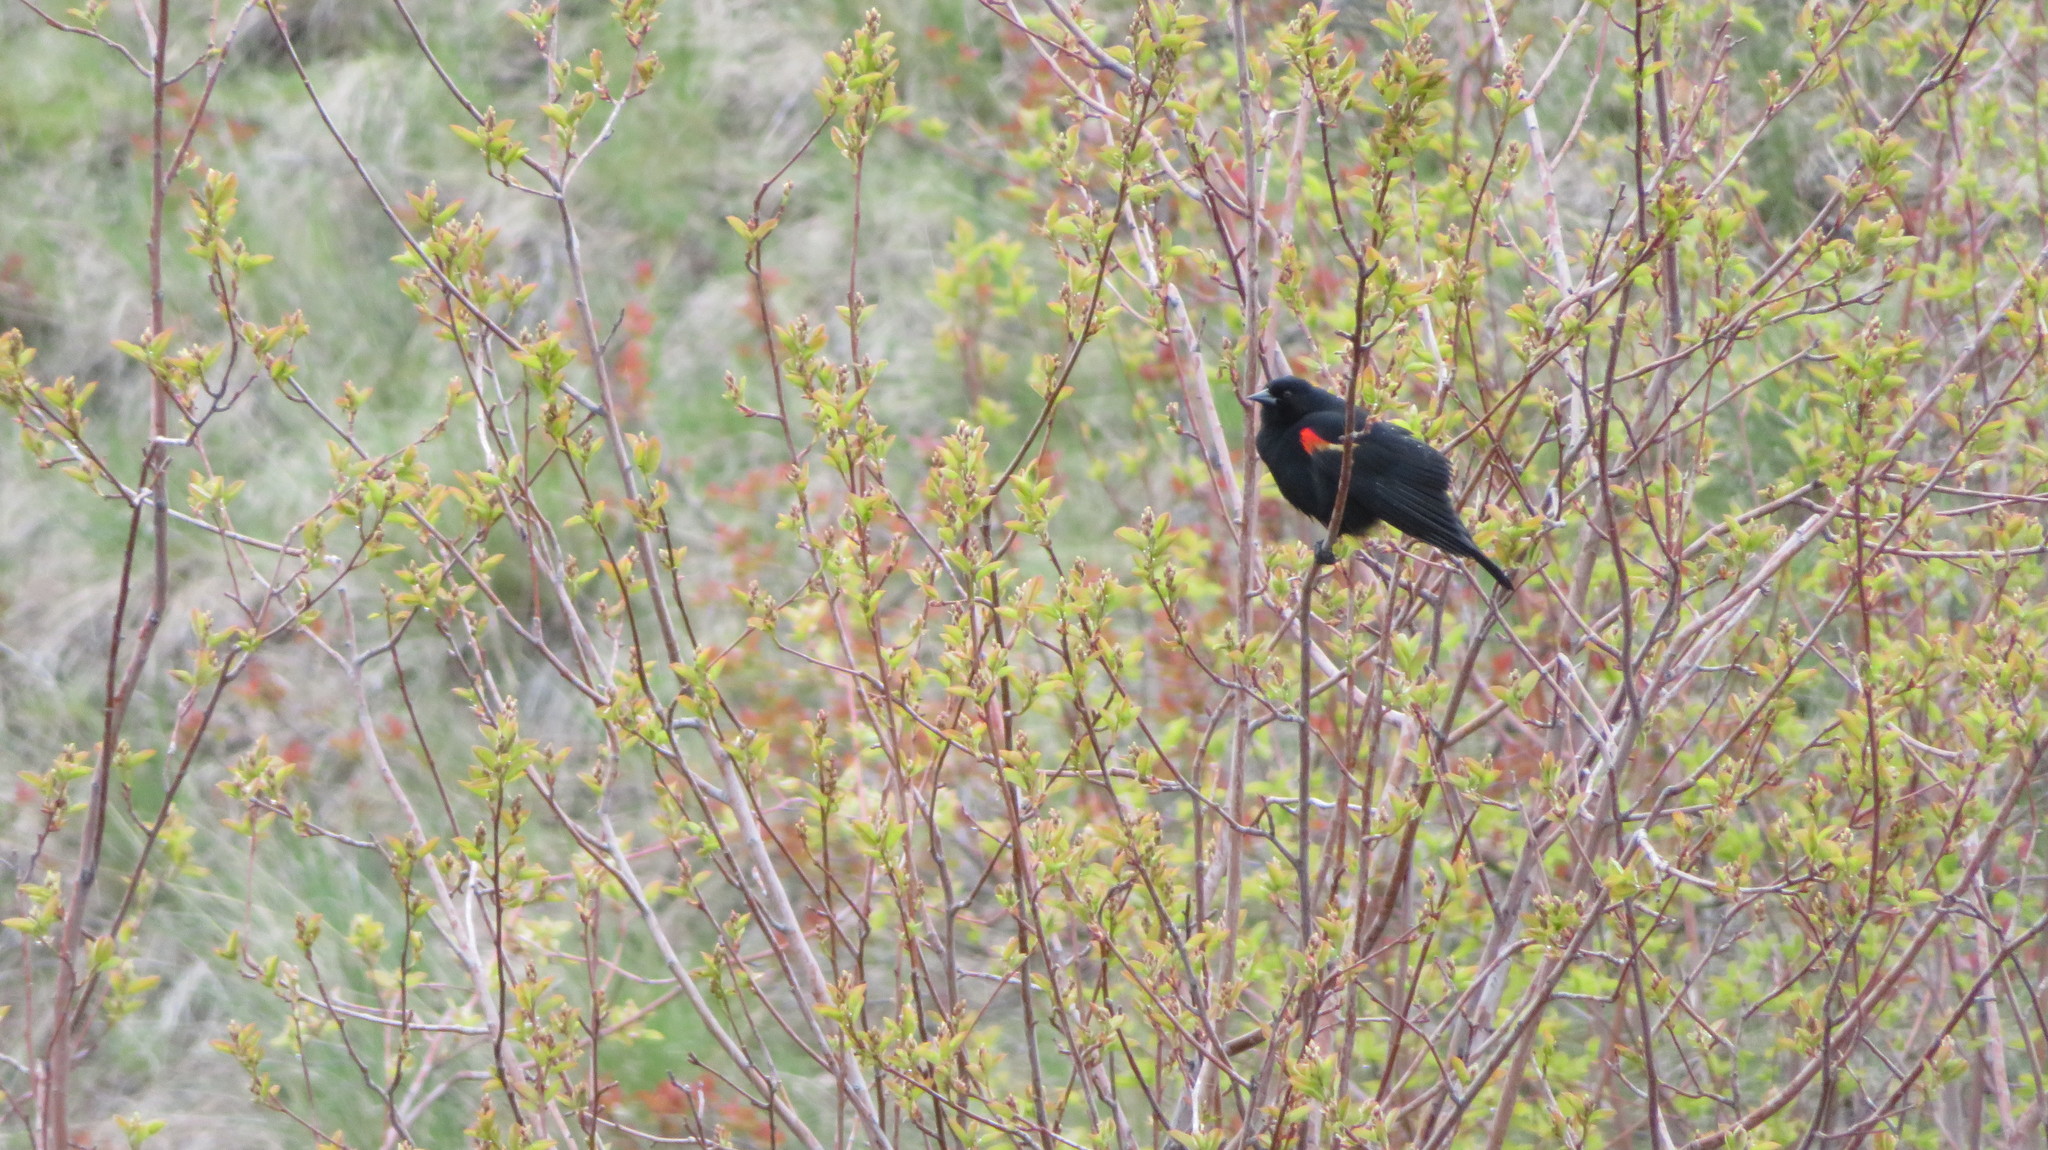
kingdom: Animalia
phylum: Chordata
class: Aves
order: Passeriformes
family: Icteridae
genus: Agelaius
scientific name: Agelaius phoeniceus
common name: Red-winged blackbird
